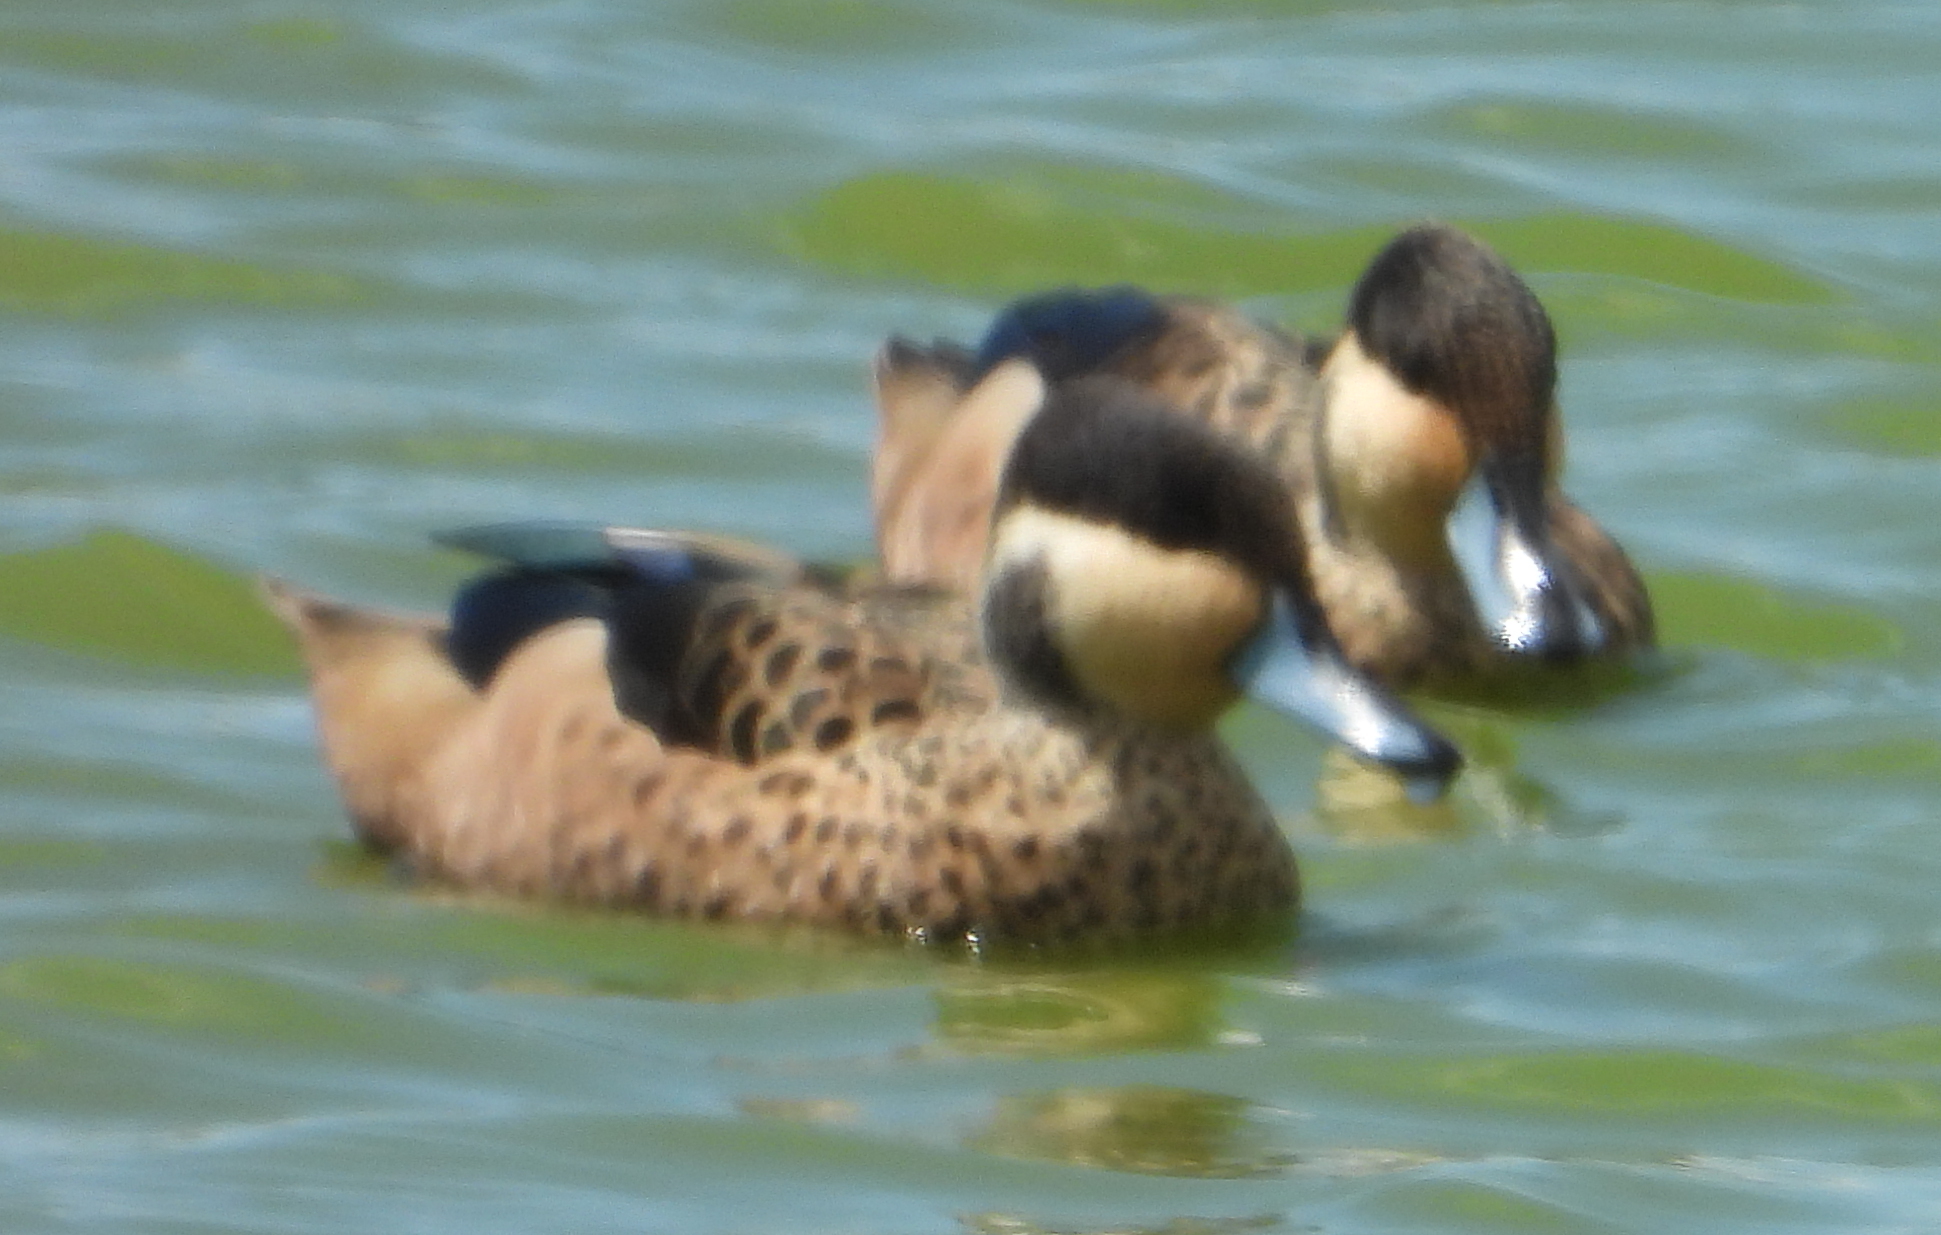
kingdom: Animalia
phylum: Chordata
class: Aves
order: Anseriformes
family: Anatidae
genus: Spatula
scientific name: Spatula hottentota
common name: Blue-billed teal
